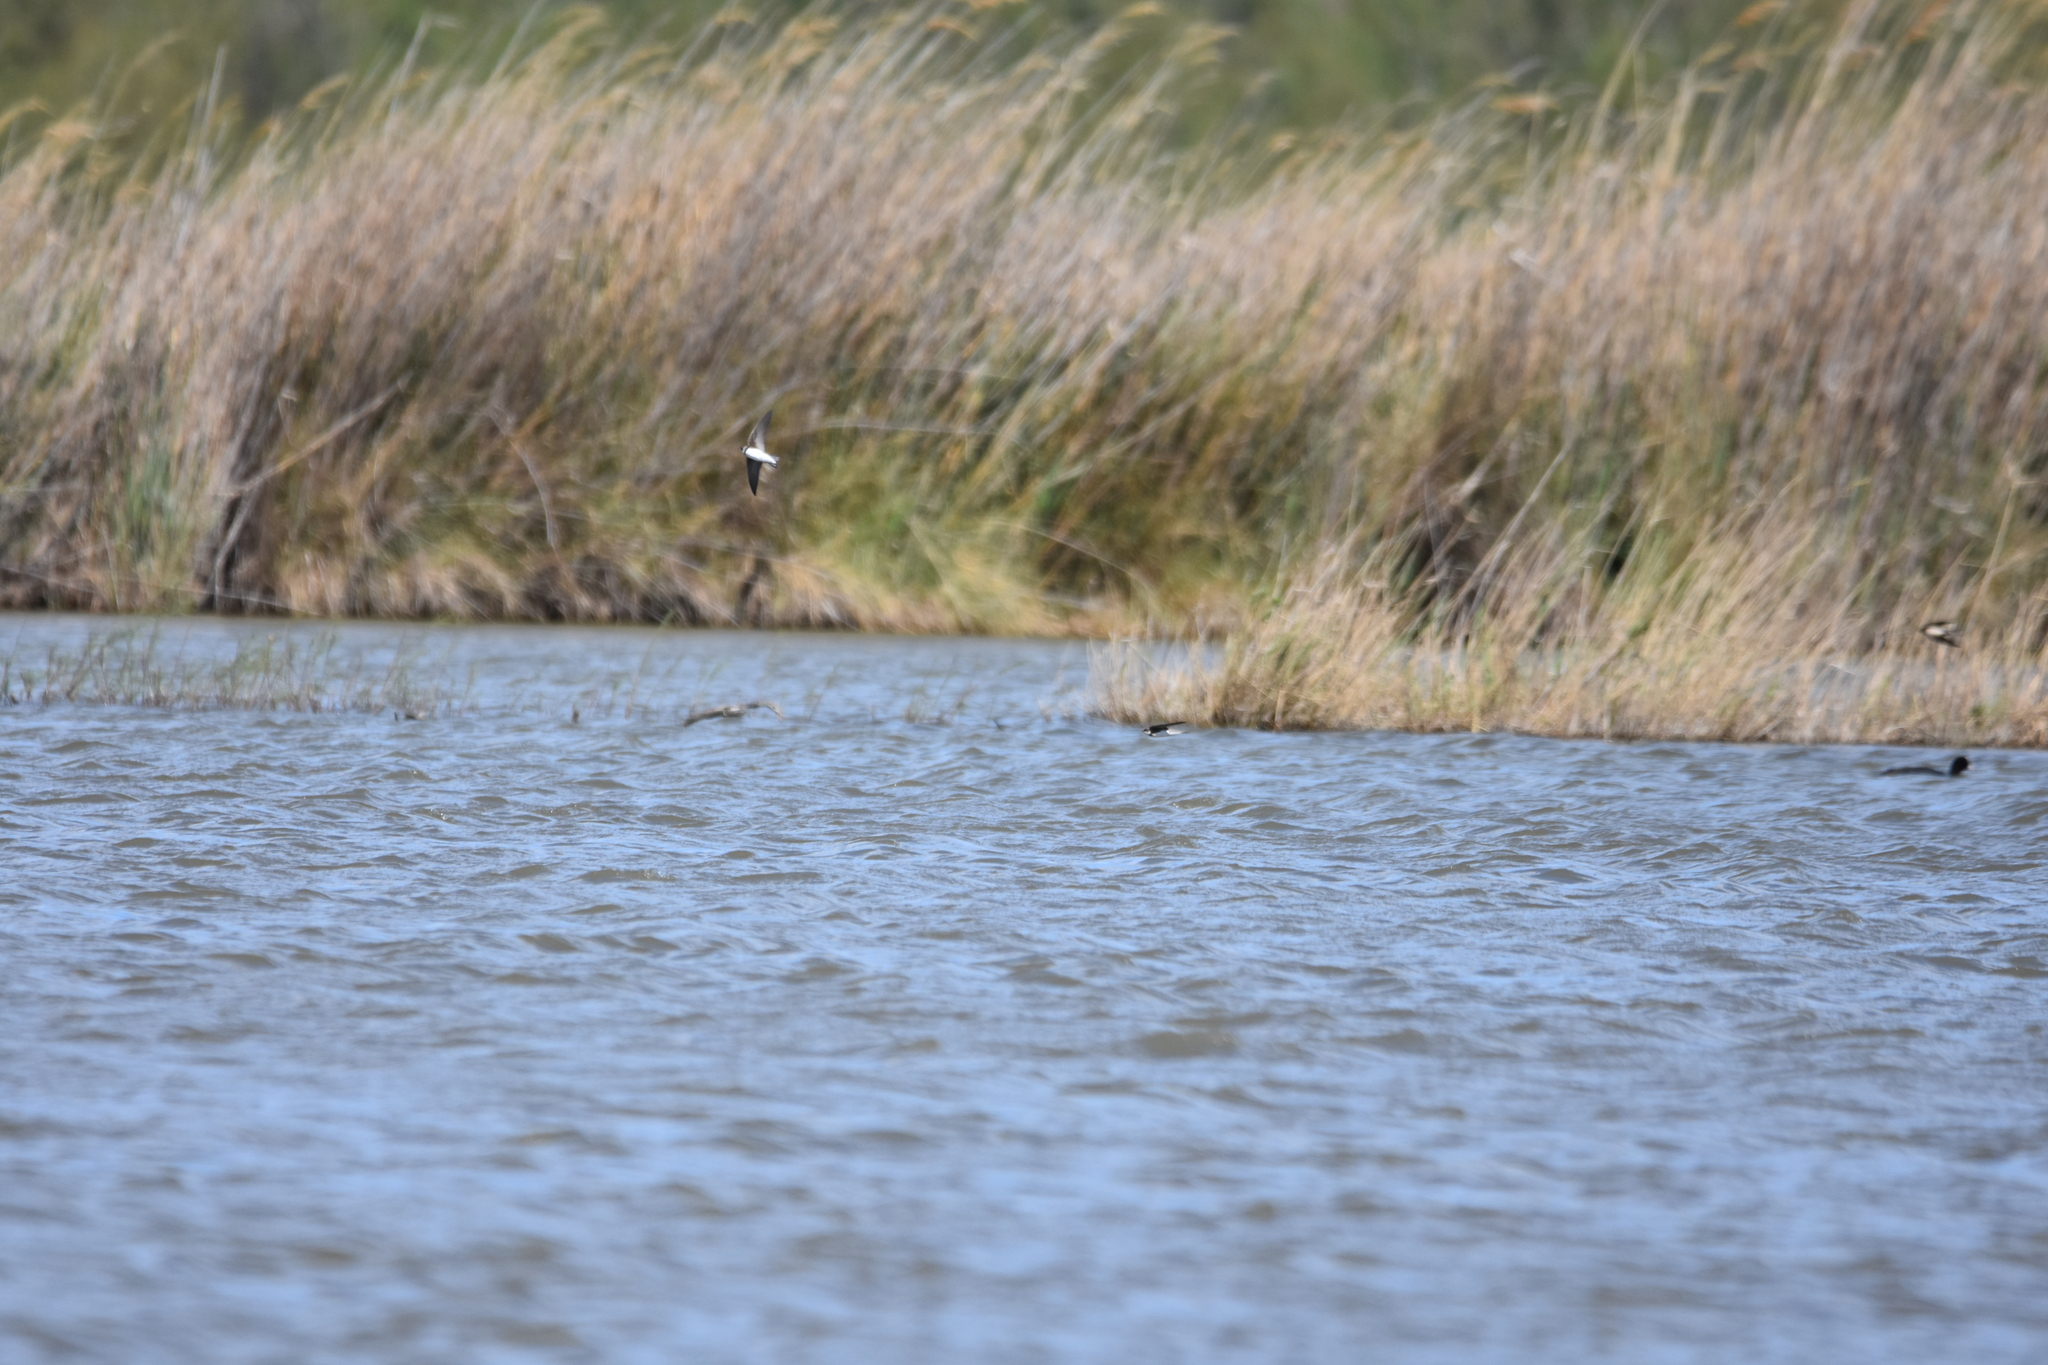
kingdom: Animalia
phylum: Chordata
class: Aves
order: Passeriformes
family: Hirundinidae
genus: Riparia
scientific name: Riparia riparia
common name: Sand martin
